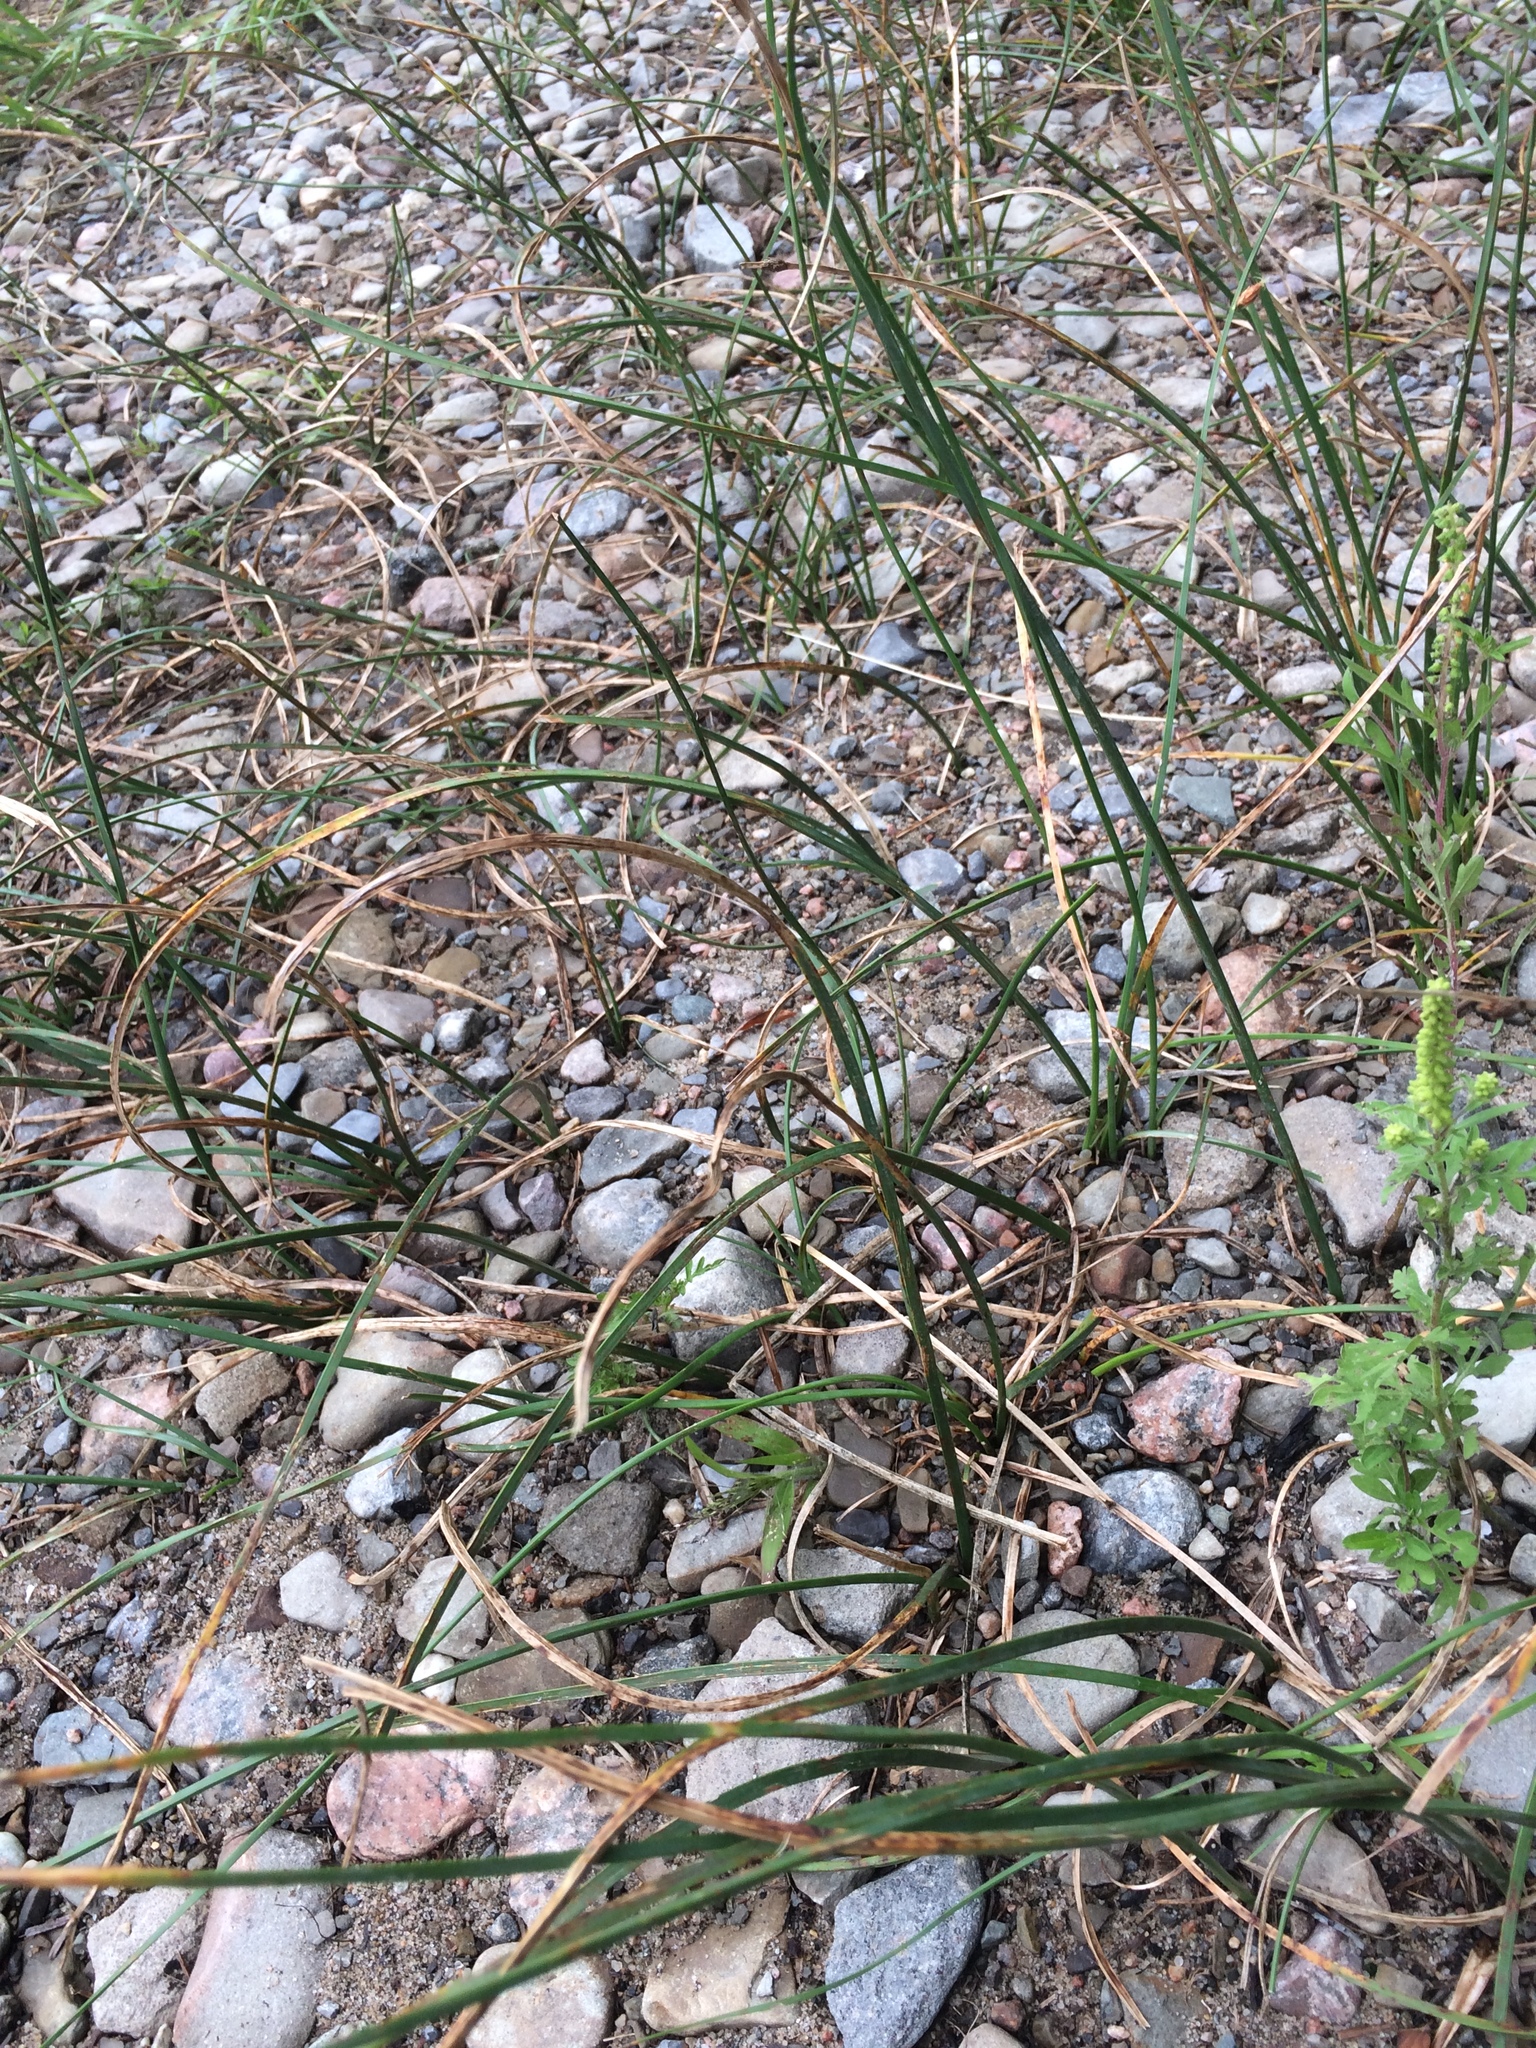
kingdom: Plantae
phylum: Tracheophyta
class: Liliopsida
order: Poales
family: Cyperaceae
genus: Schoenoplectus
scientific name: Schoenoplectus pungens
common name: Sharp club-rush
